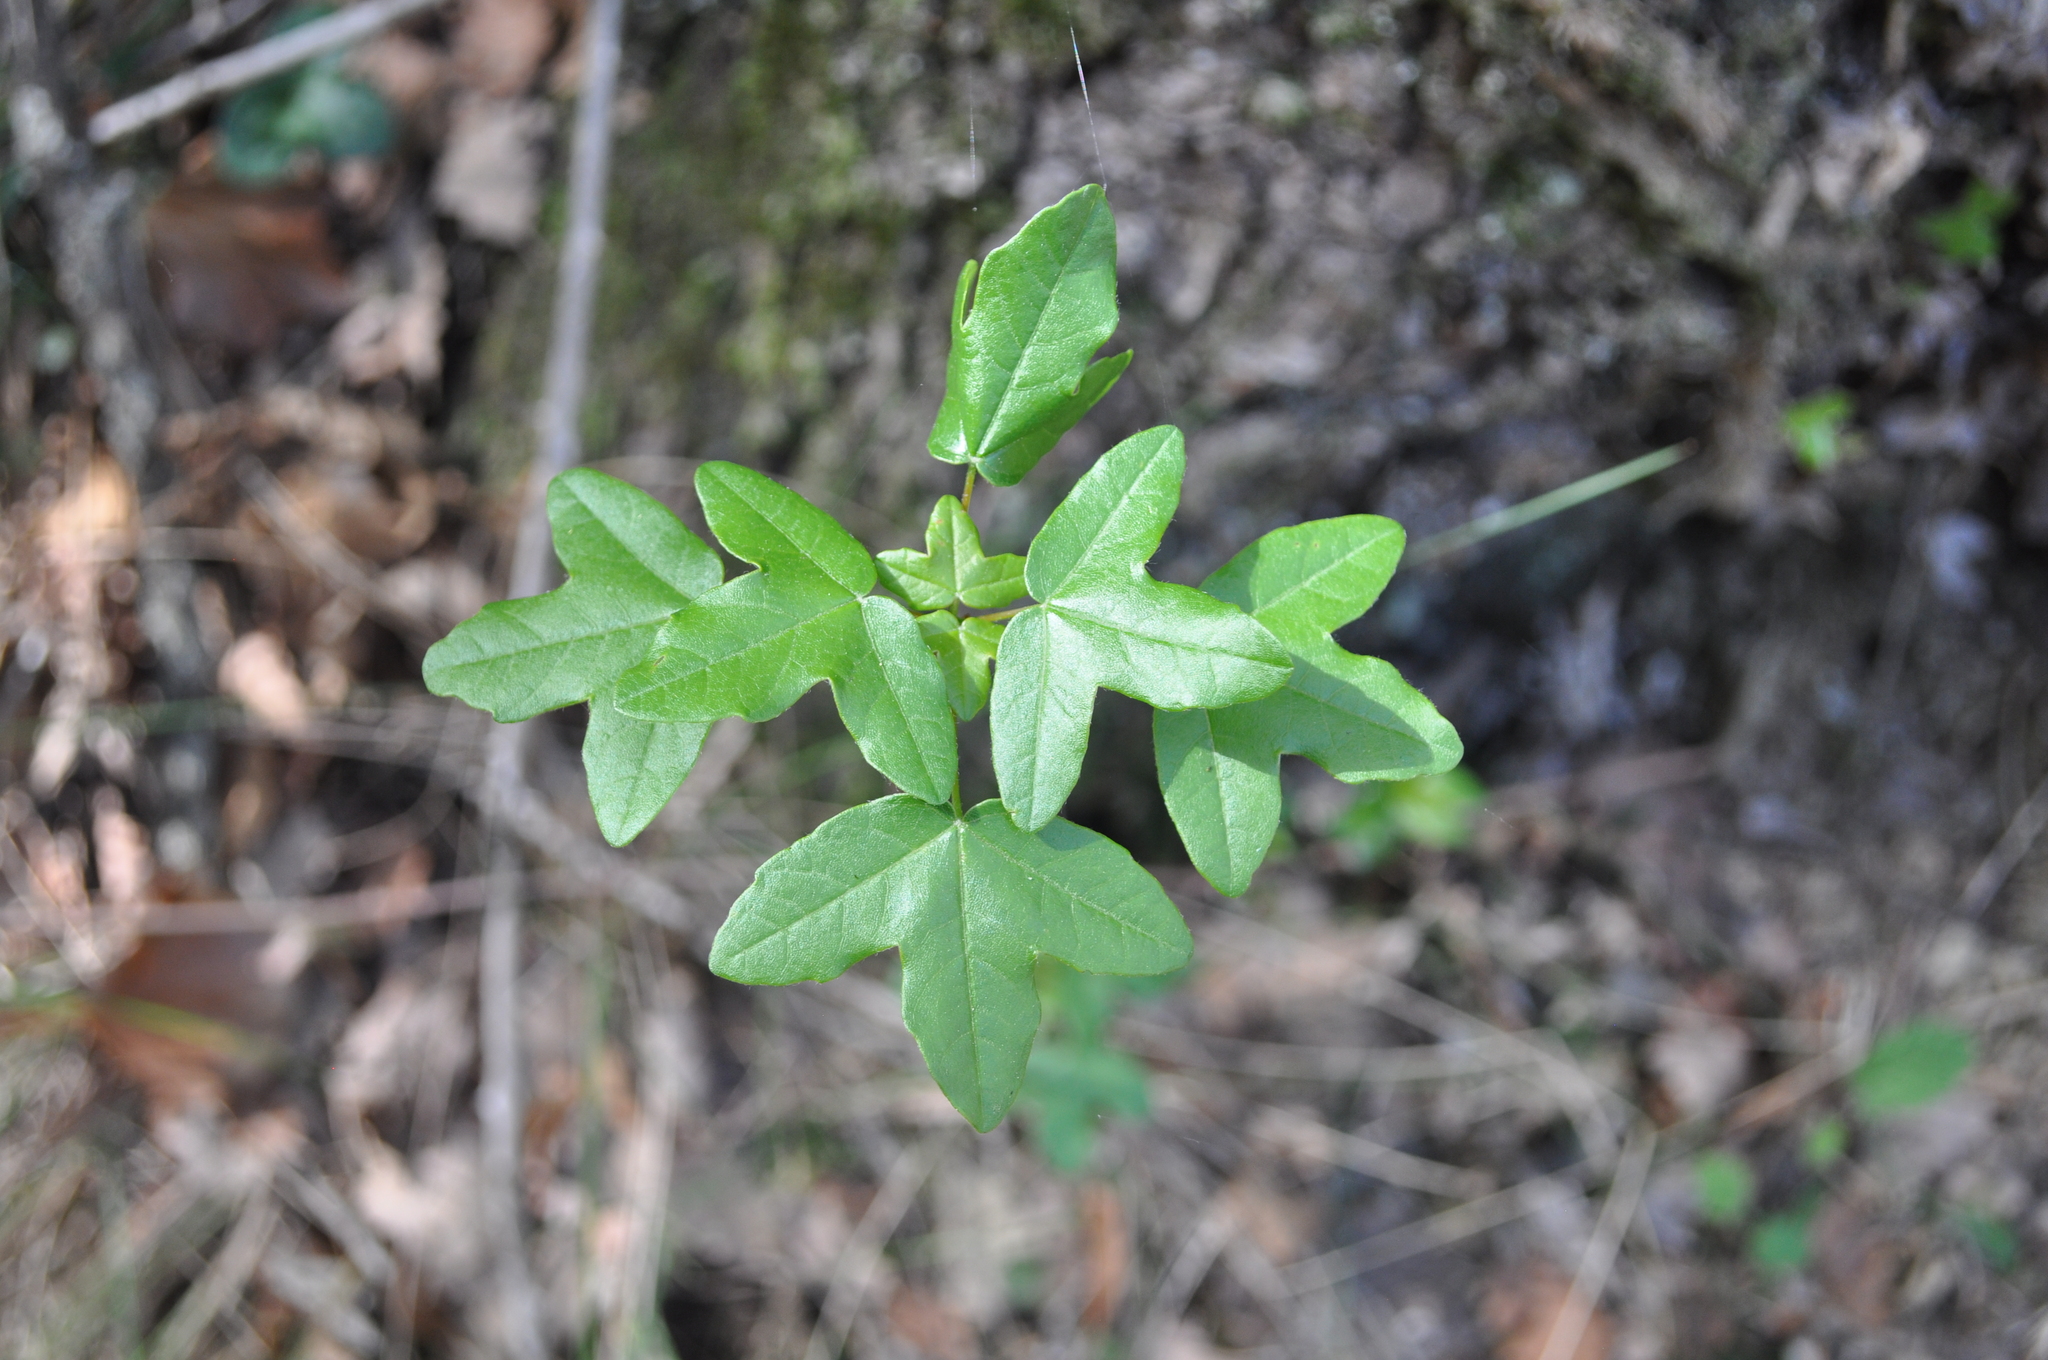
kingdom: Plantae
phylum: Tracheophyta
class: Magnoliopsida
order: Sapindales
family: Sapindaceae
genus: Acer
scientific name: Acer monspessulanum
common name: Montpellier maple
